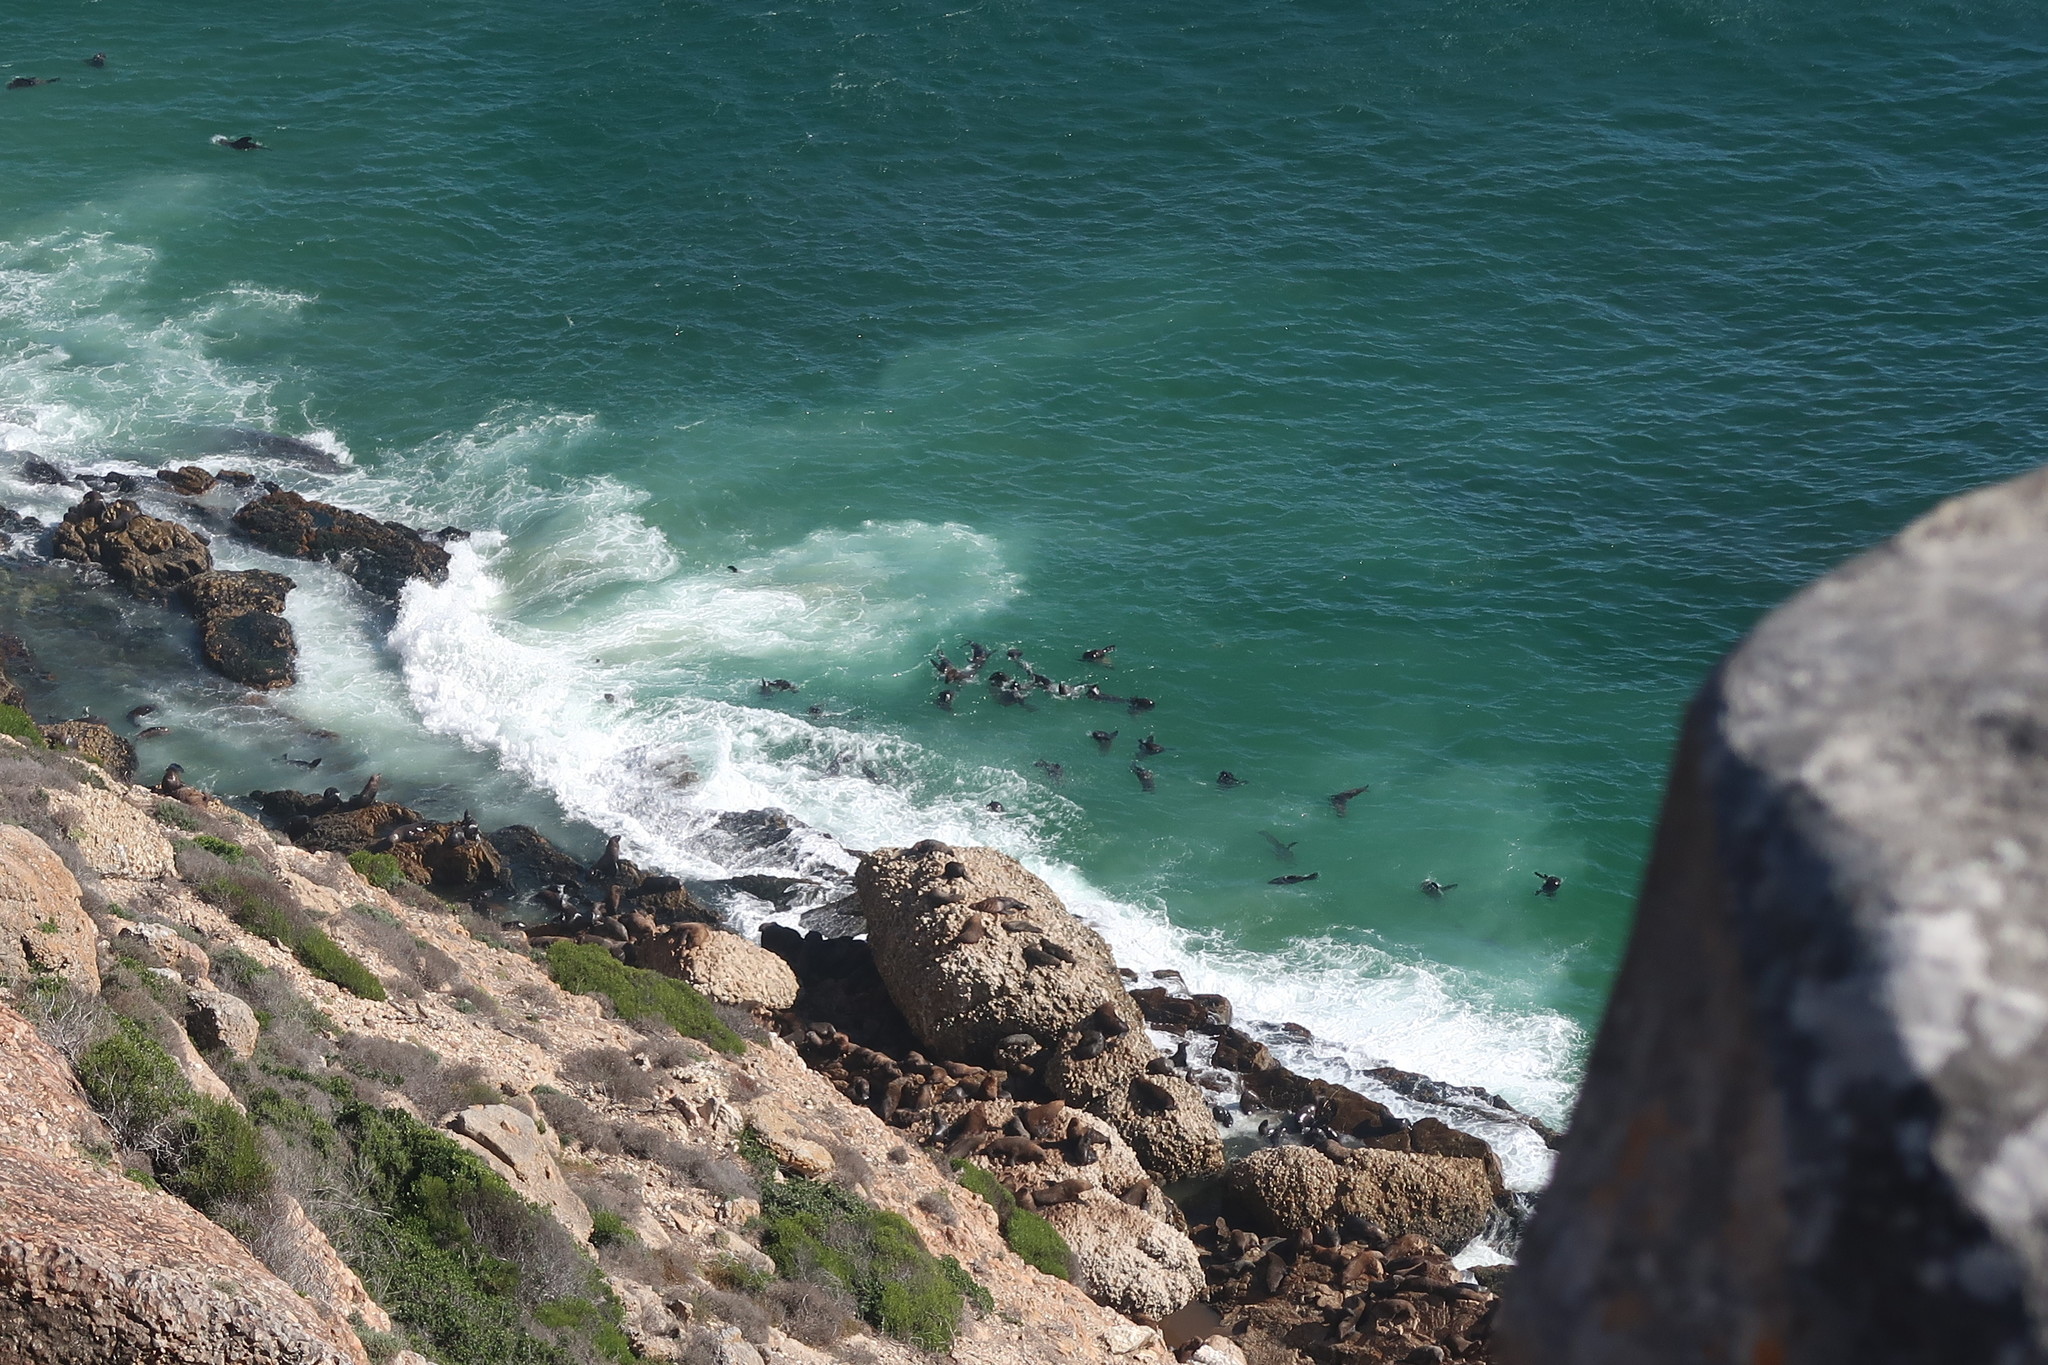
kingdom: Animalia
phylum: Chordata
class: Mammalia
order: Carnivora
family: Otariidae
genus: Arctocephalus
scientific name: Arctocephalus pusillus
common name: Brown fur seal
